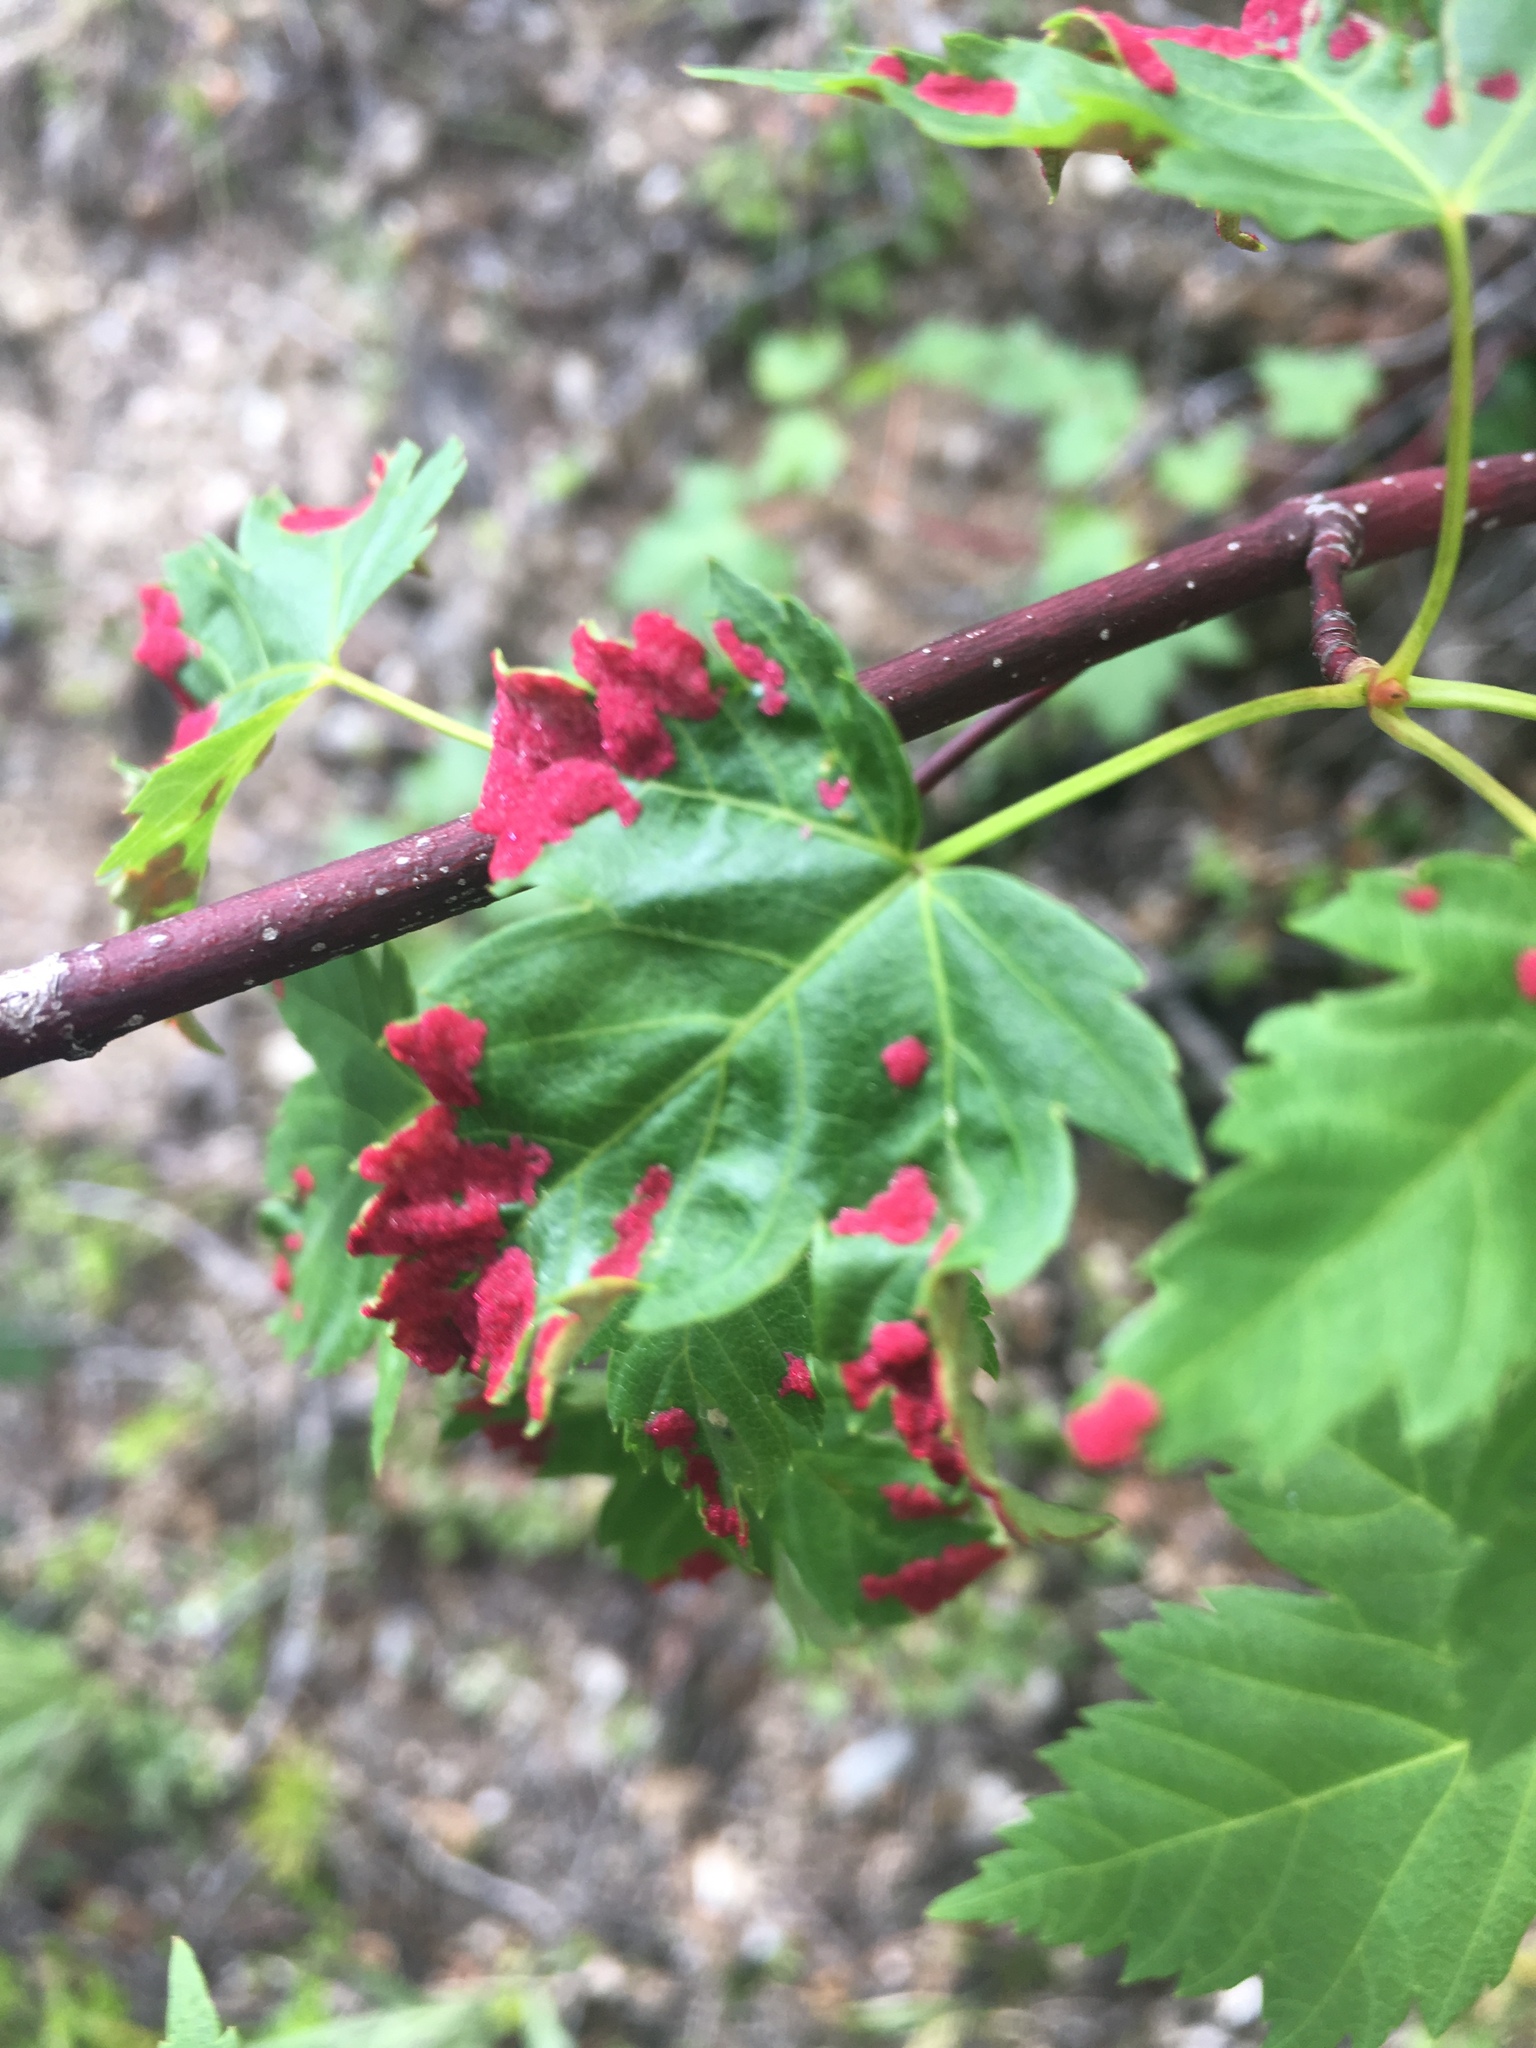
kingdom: Plantae
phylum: Tracheophyta
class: Magnoliopsida
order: Sapindales
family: Sapindaceae
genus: Acer
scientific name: Acer glabrum
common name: Rocky mountain maple
